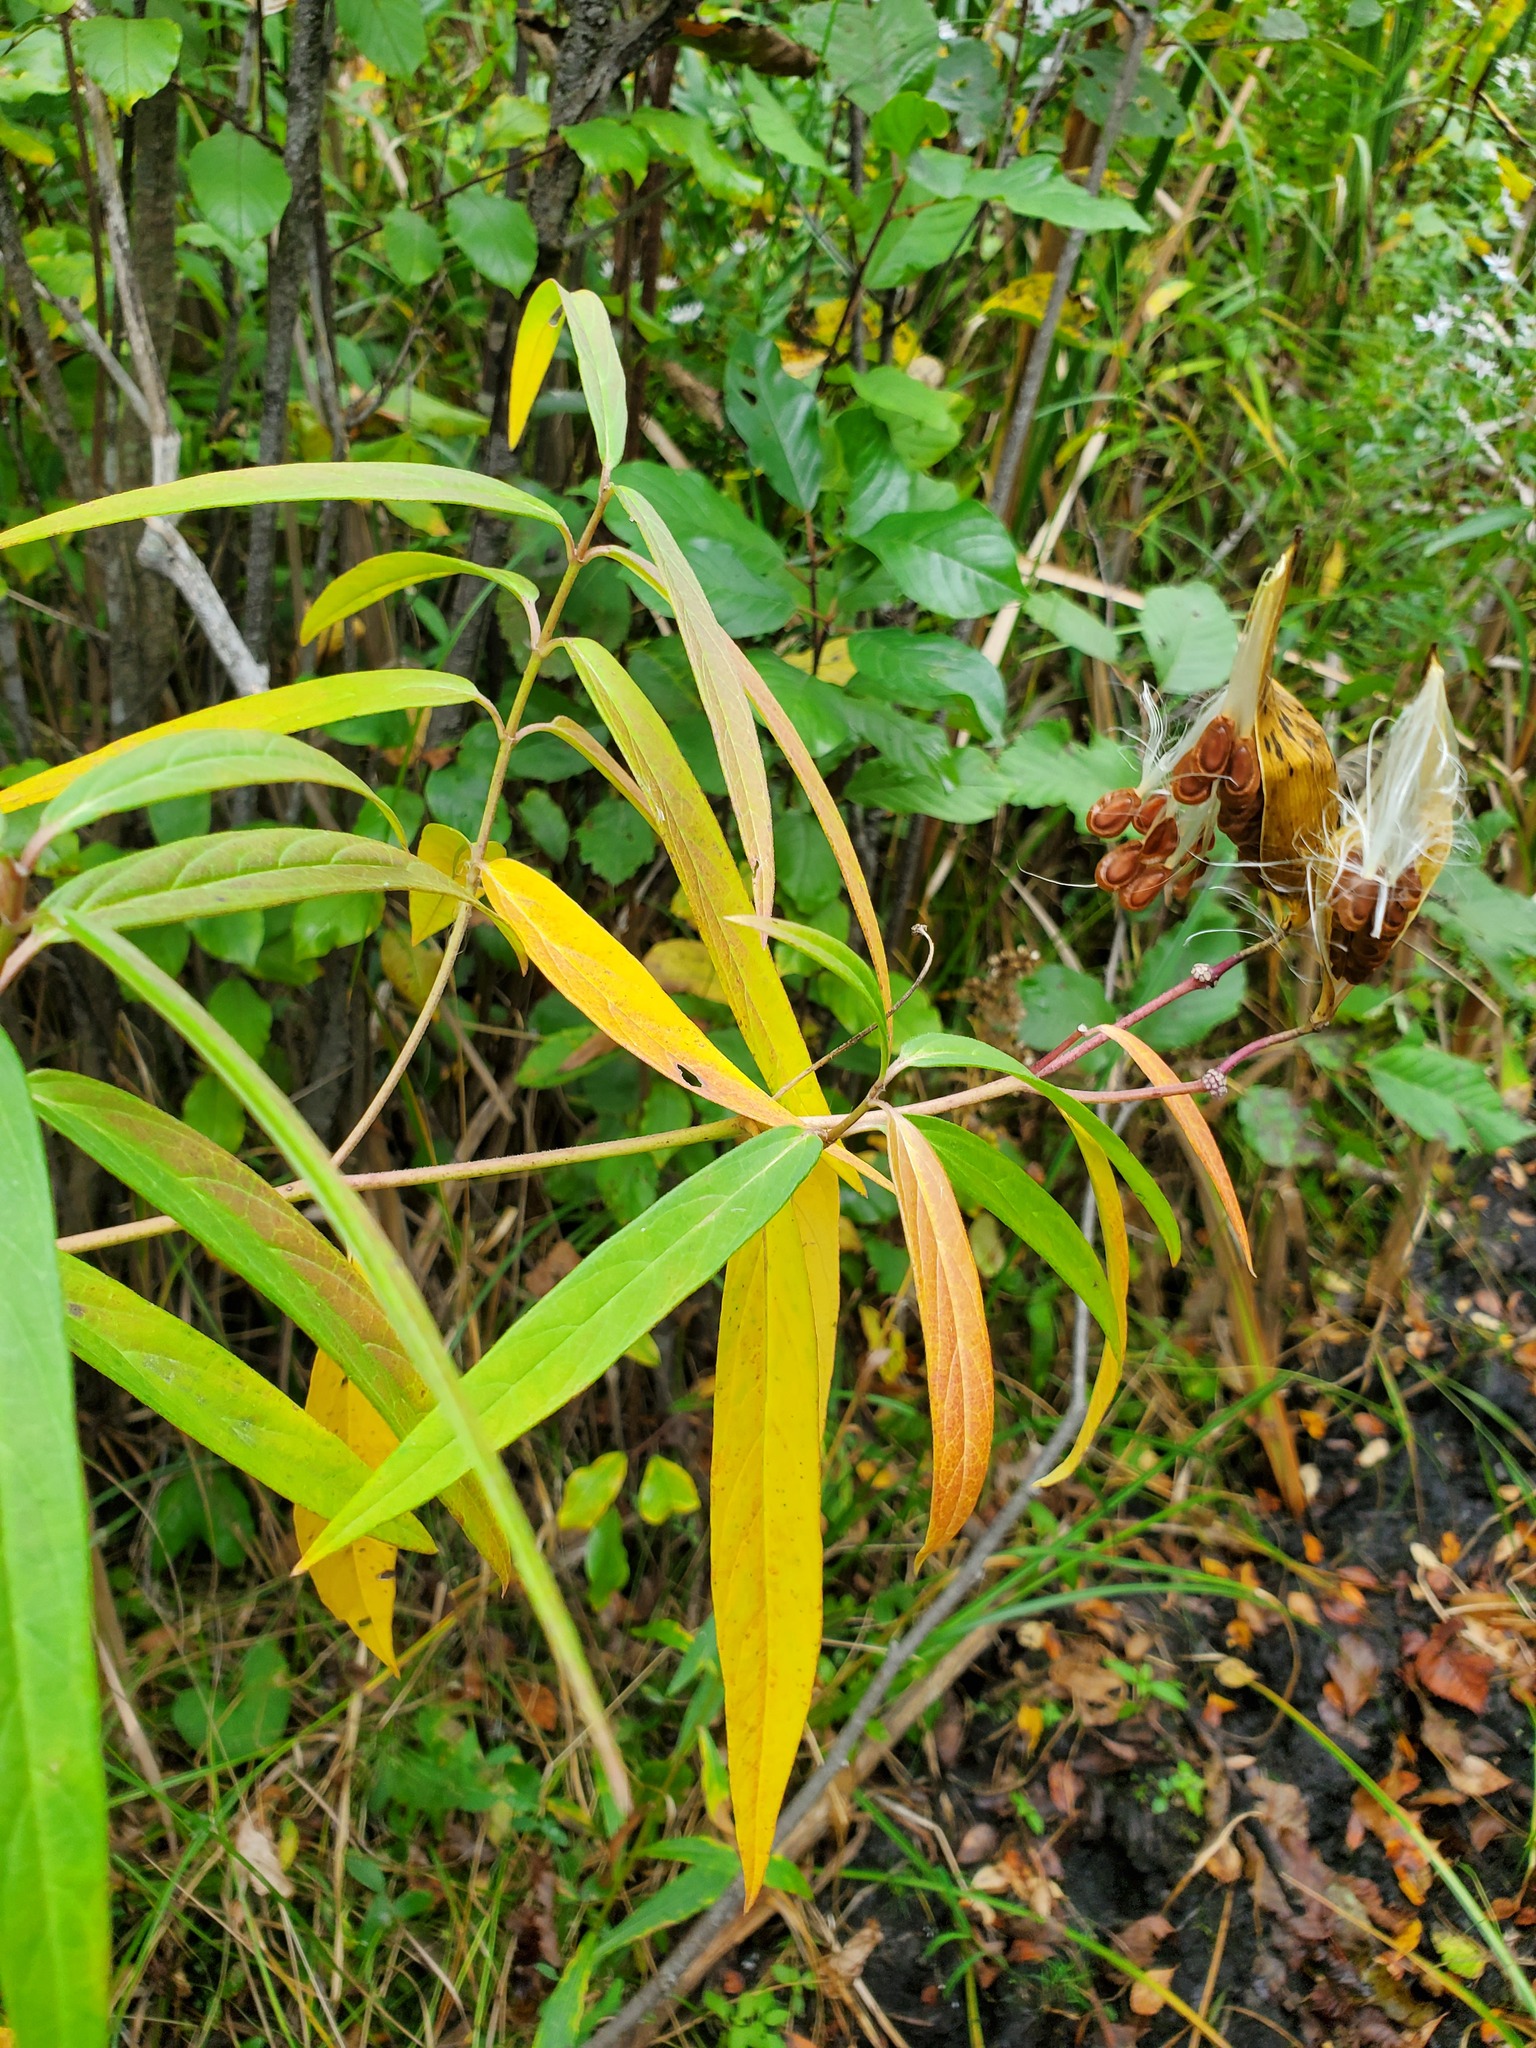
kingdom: Plantae
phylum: Tracheophyta
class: Magnoliopsida
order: Gentianales
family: Apocynaceae
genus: Asclepias
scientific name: Asclepias incarnata
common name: Swamp milkweed
